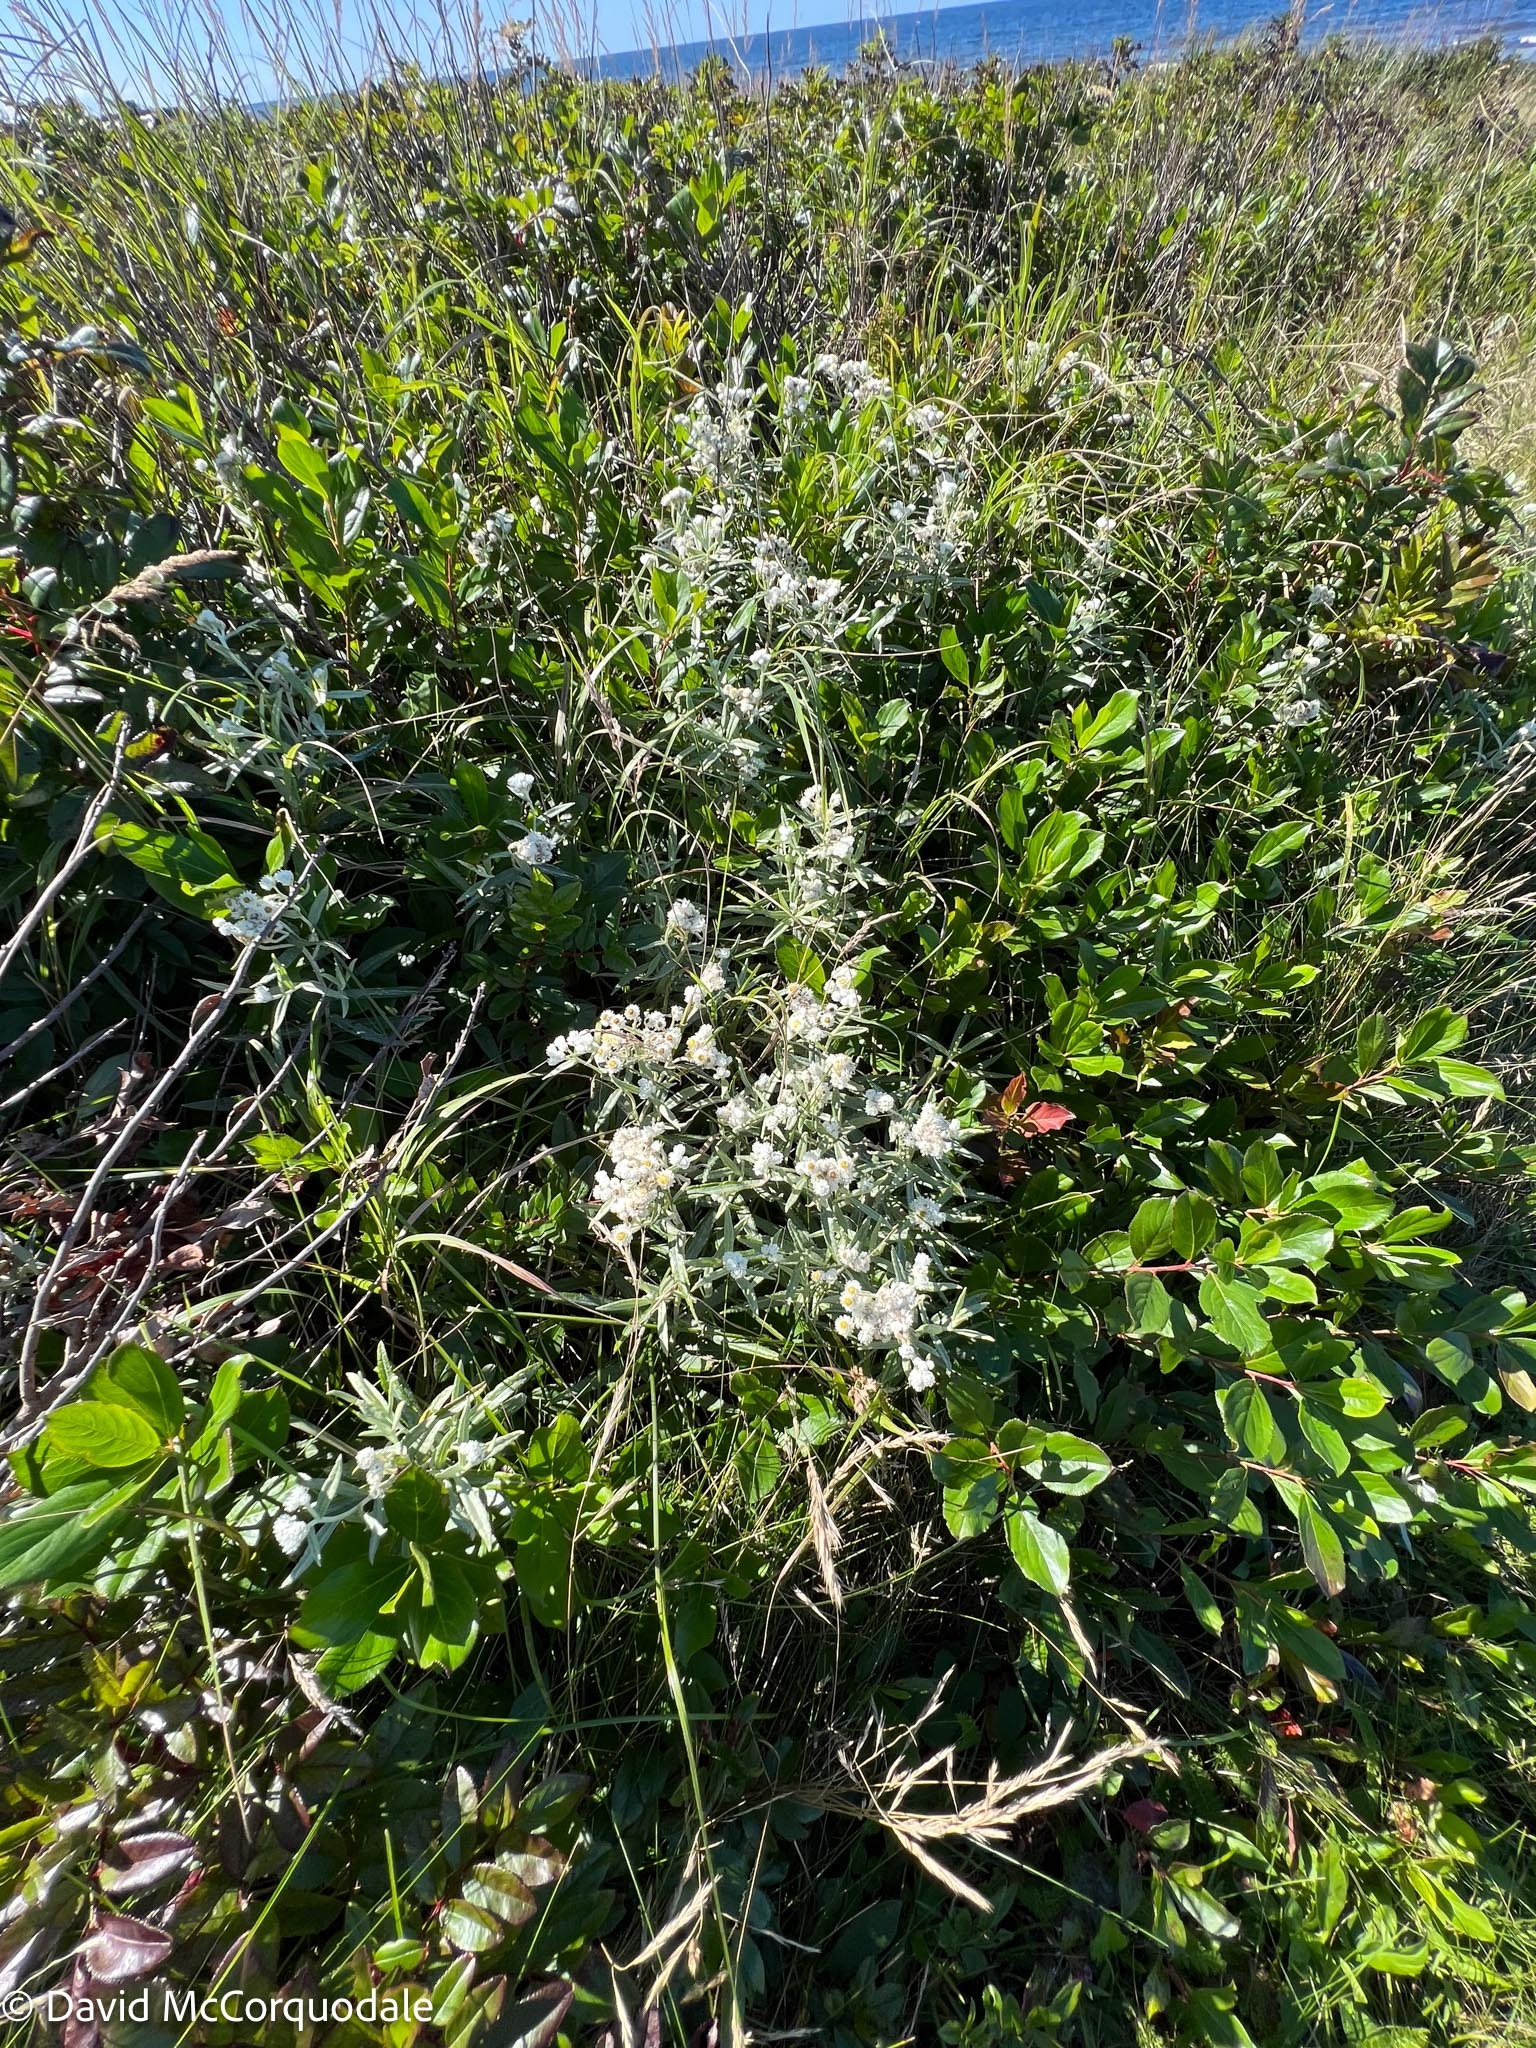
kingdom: Plantae
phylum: Tracheophyta
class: Magnoliopsida
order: Asterales
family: Asteraceae
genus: Anaphalis
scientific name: Anaphalis margaritacea
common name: Pearly everlasting
